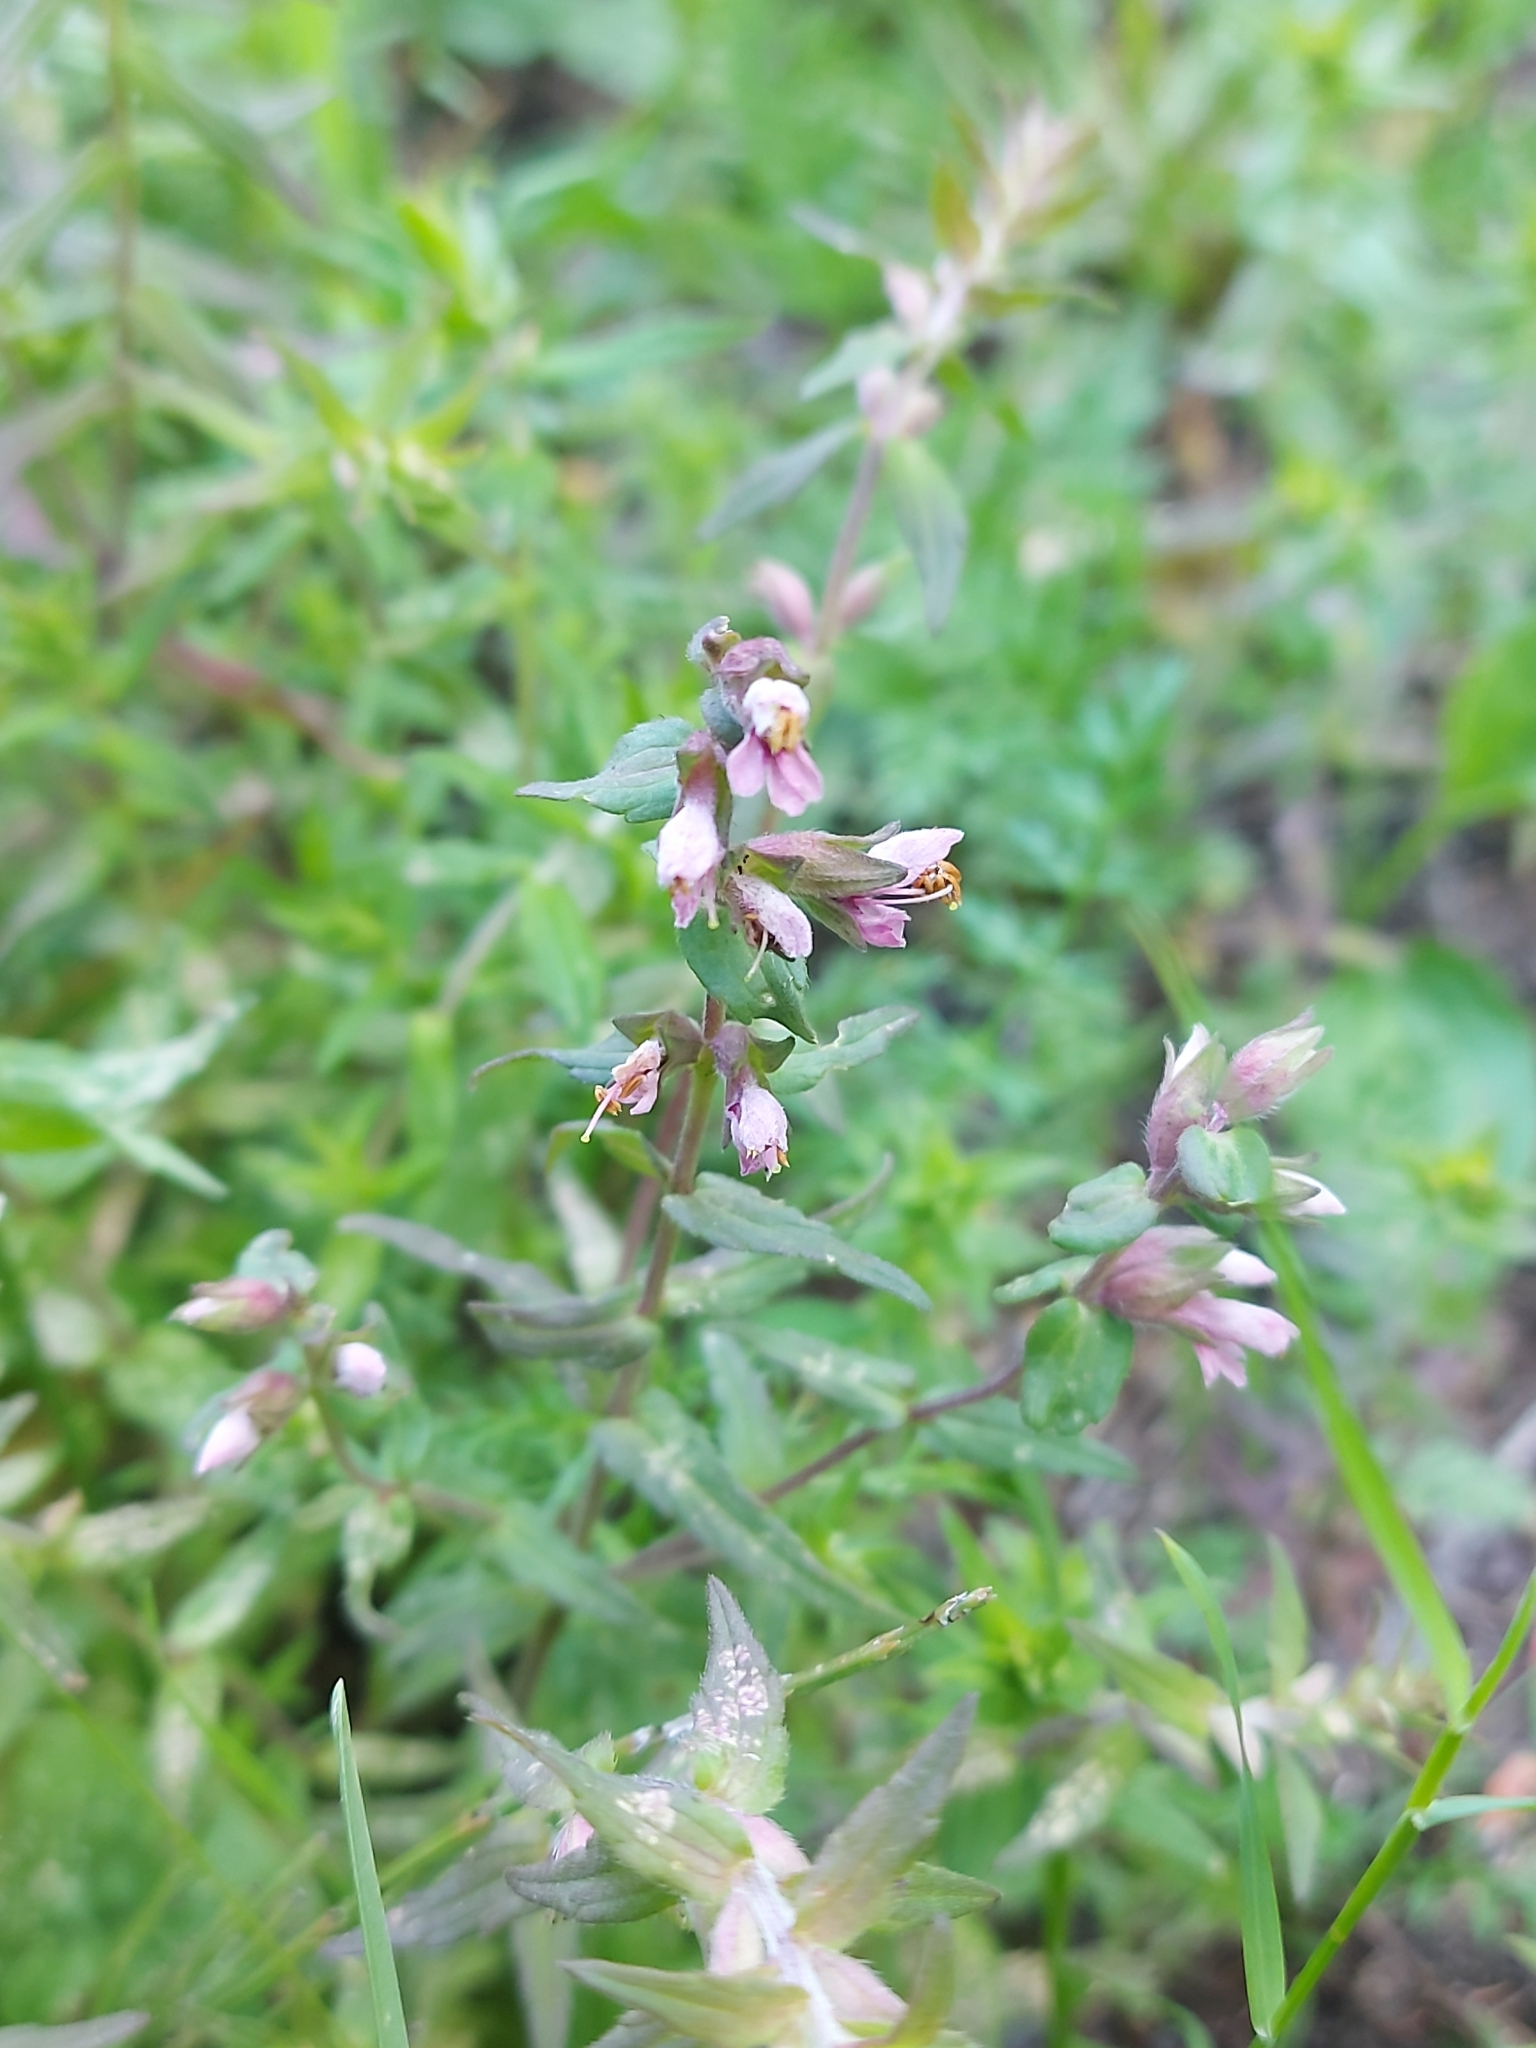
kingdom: Plantae
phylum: Tracheophyta
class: Magnoliopsida
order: Lamiales
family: Orobanchaceae
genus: Odontites
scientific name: Odontites vulgaris
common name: Broomrape
